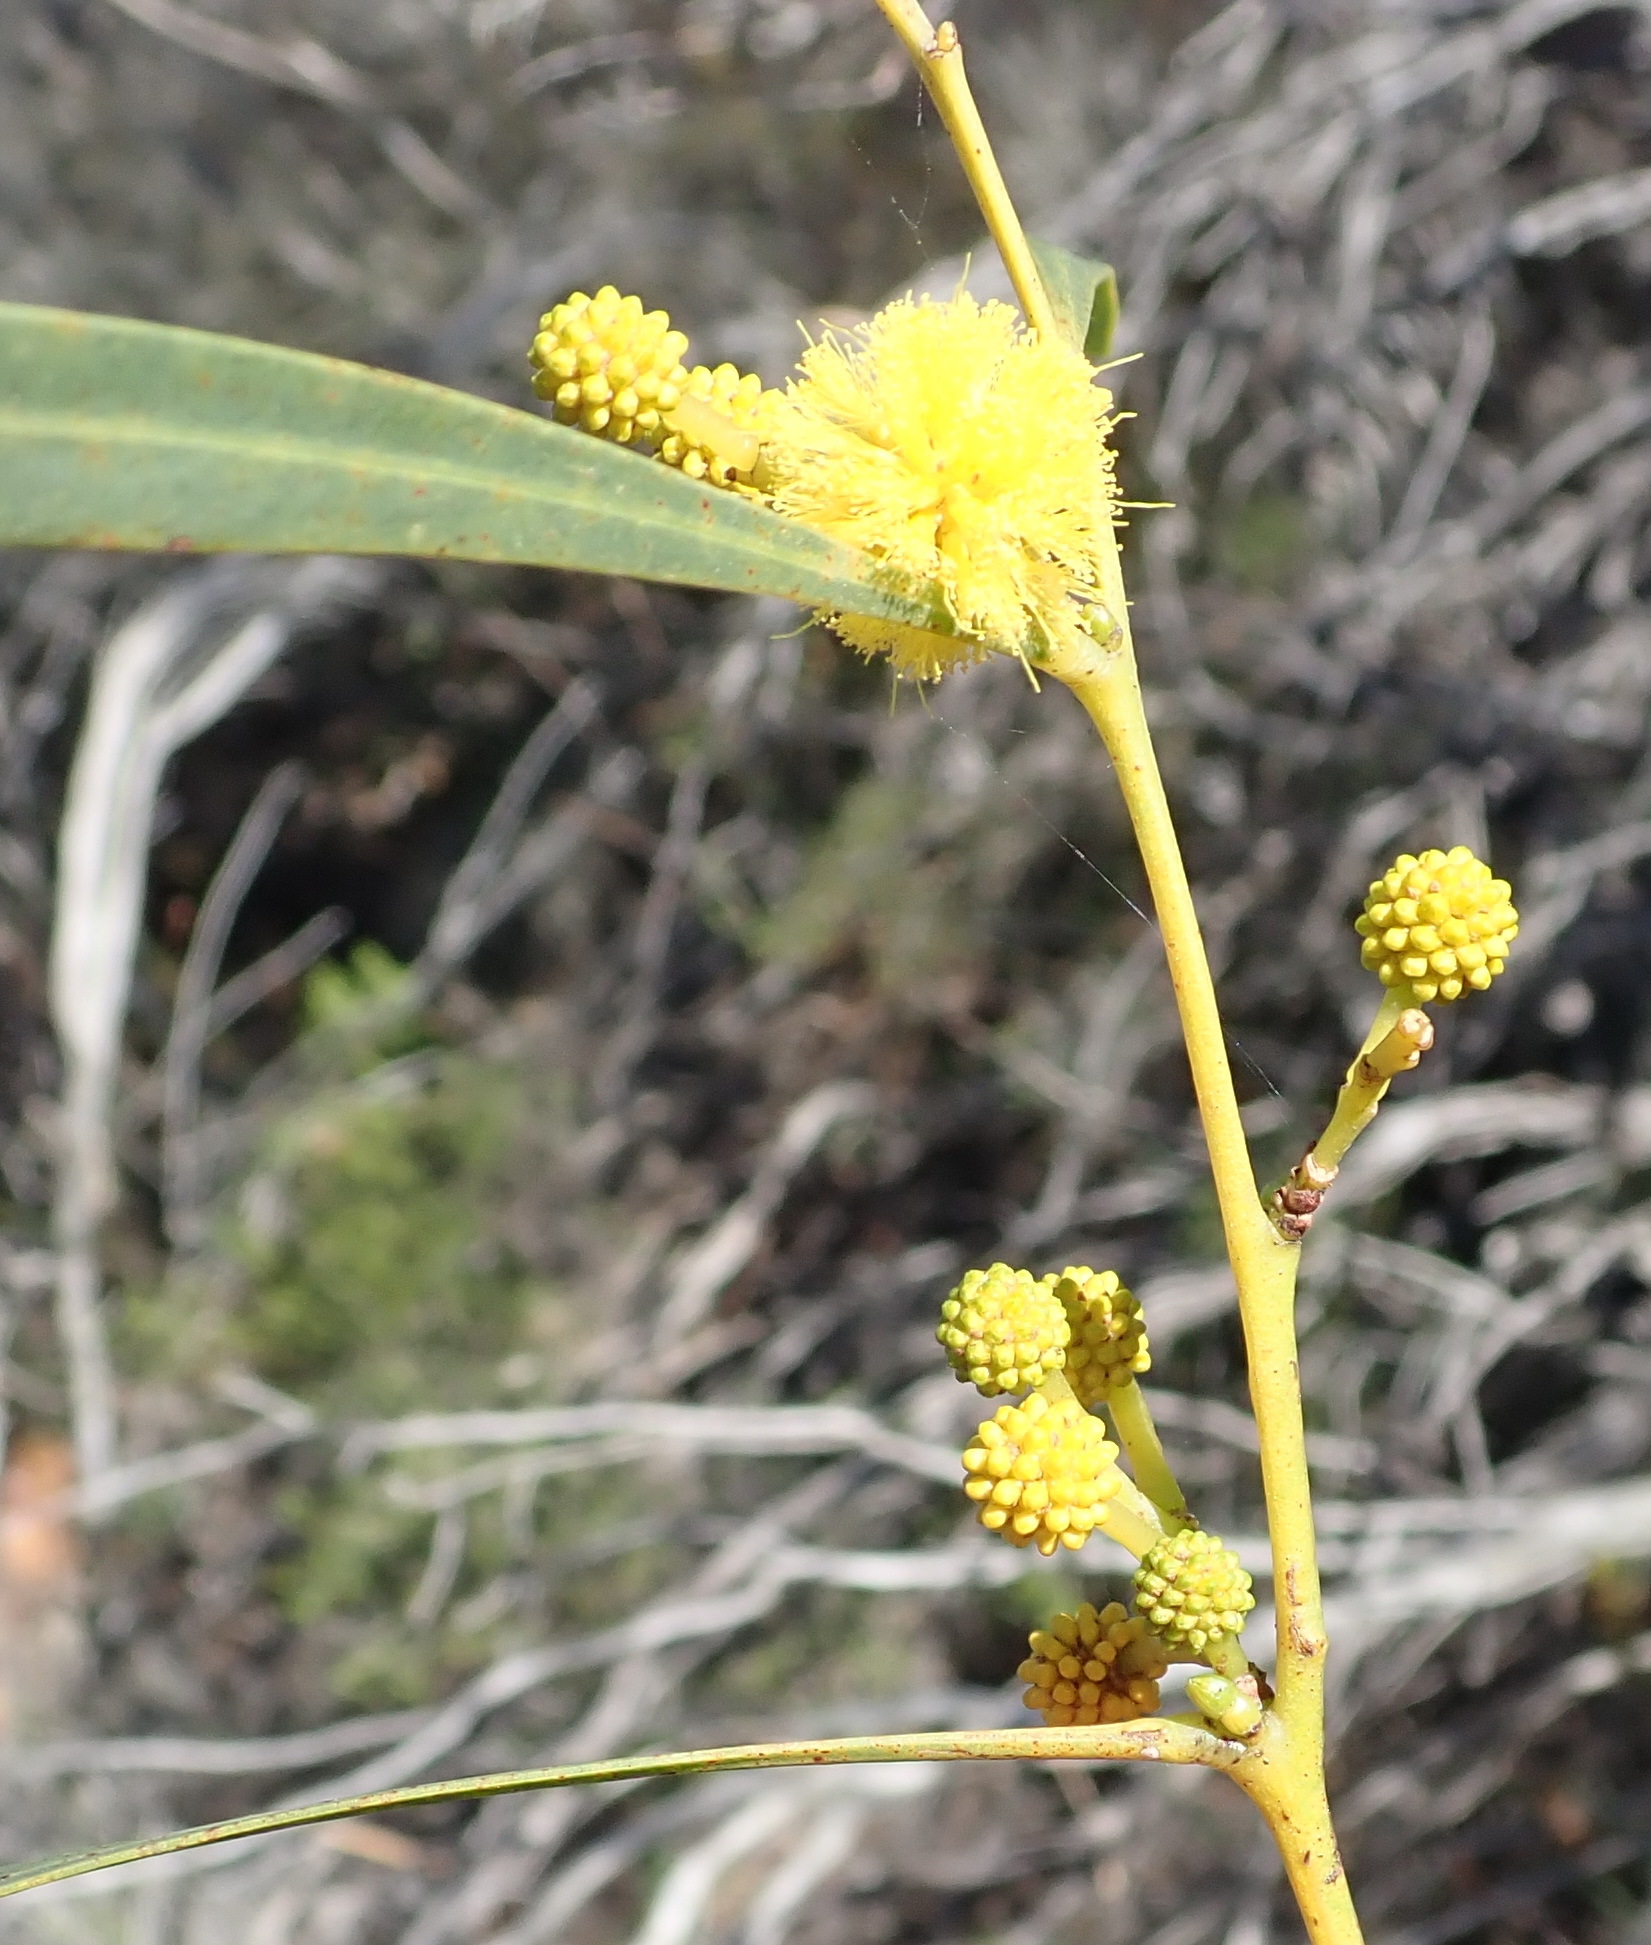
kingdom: Plantae
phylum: Tracheophyta
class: Magnoliopsida
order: Fabales
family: Fabaceae
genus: Acacia
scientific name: Acacia saligna
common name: Orange wattle
